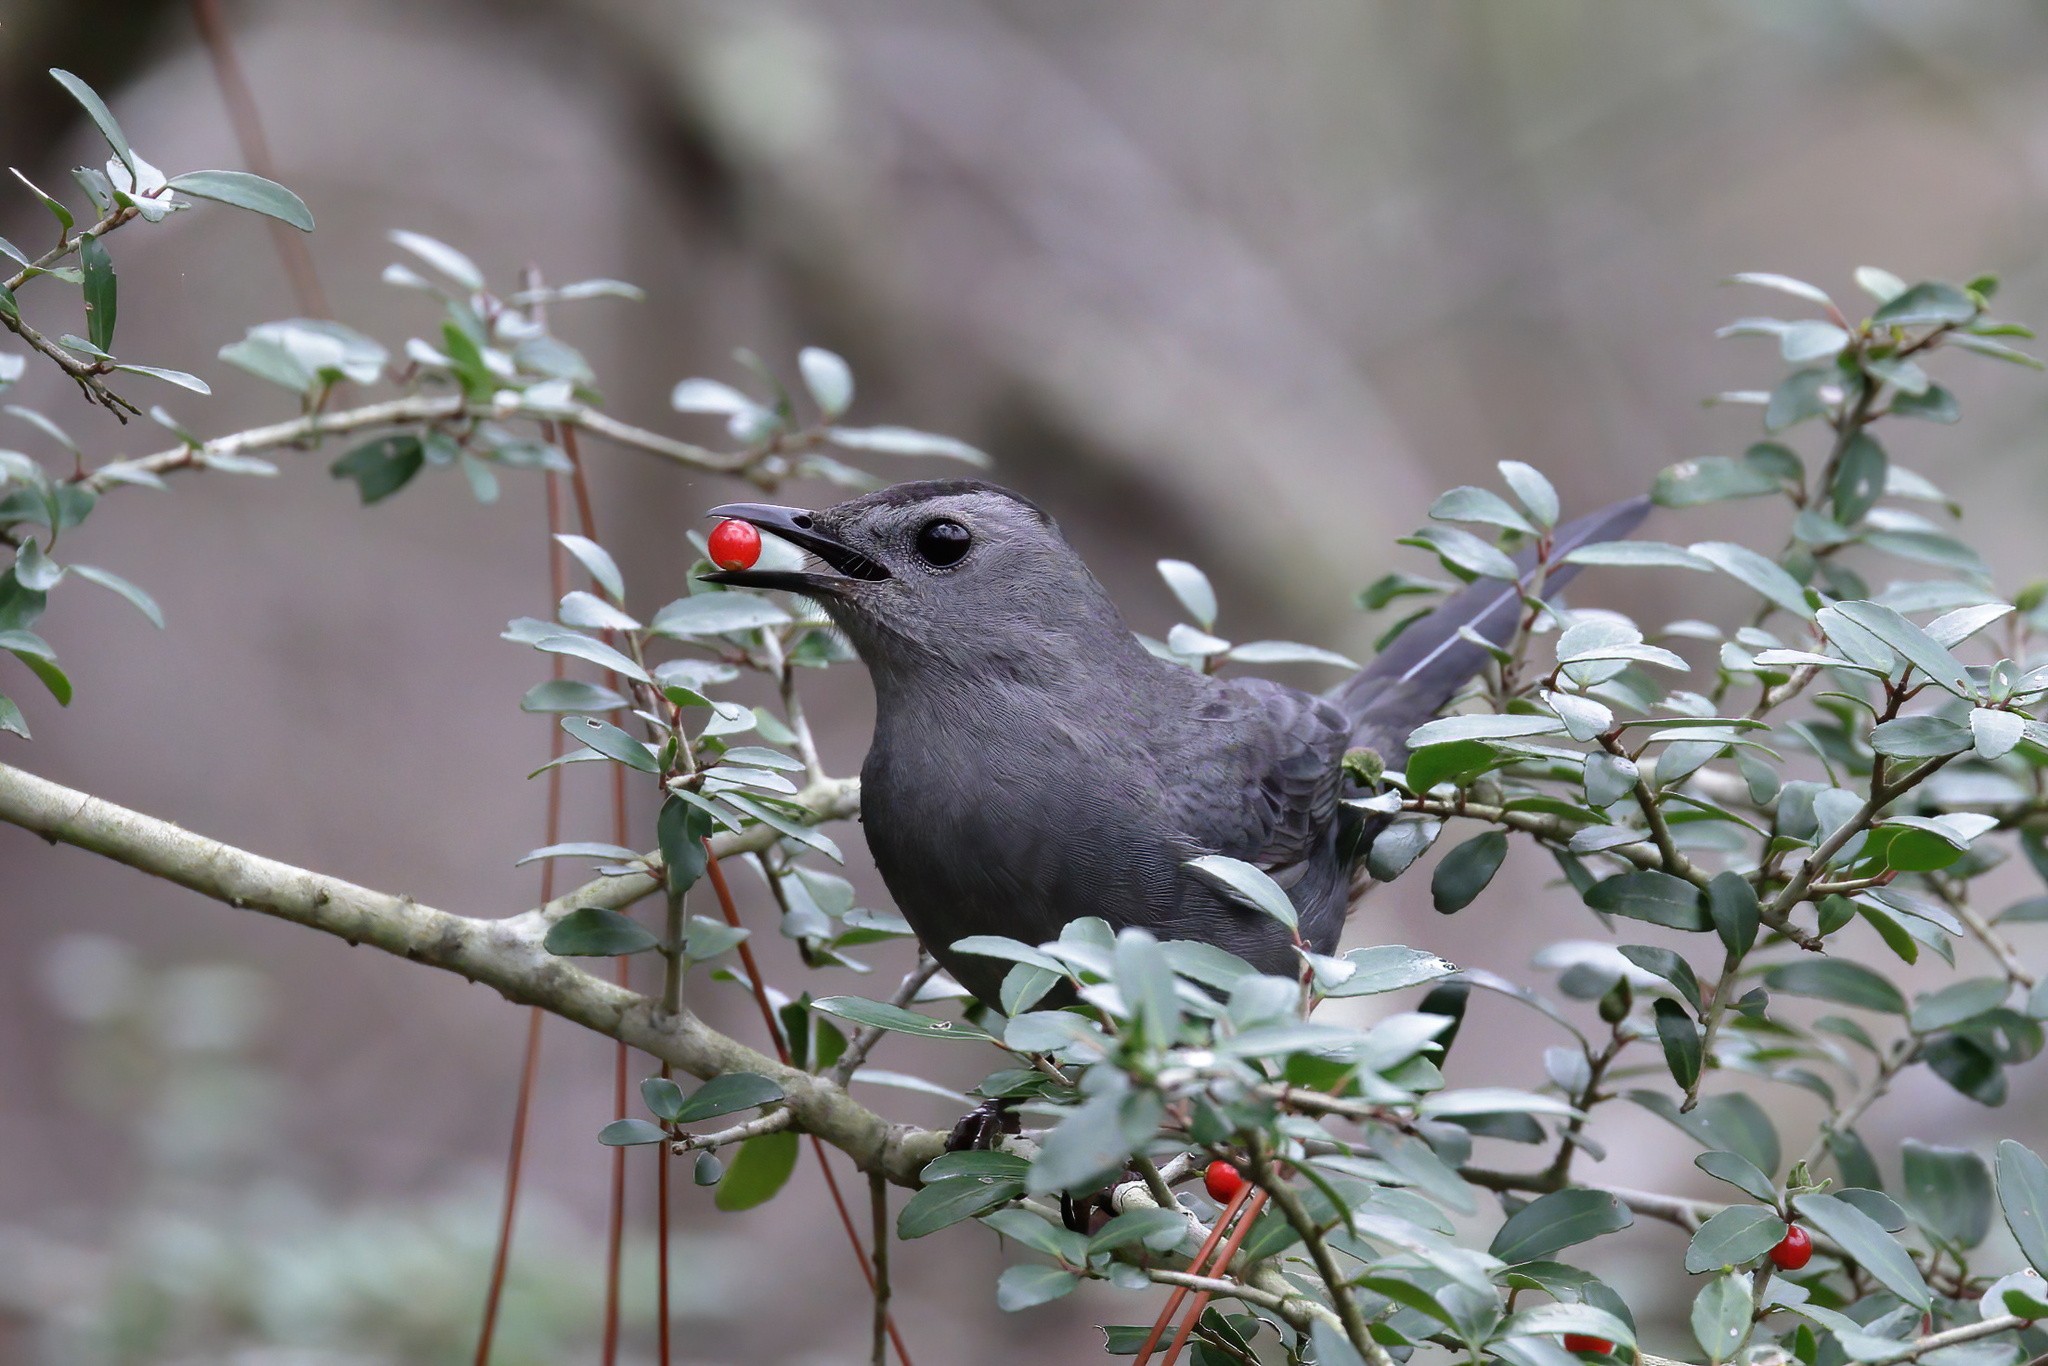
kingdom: Animalia
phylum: Chordata
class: Aves
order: Passeriformes
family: Mimidae
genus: Dumetella
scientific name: Dumetella carolinensis
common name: Gray catbird
